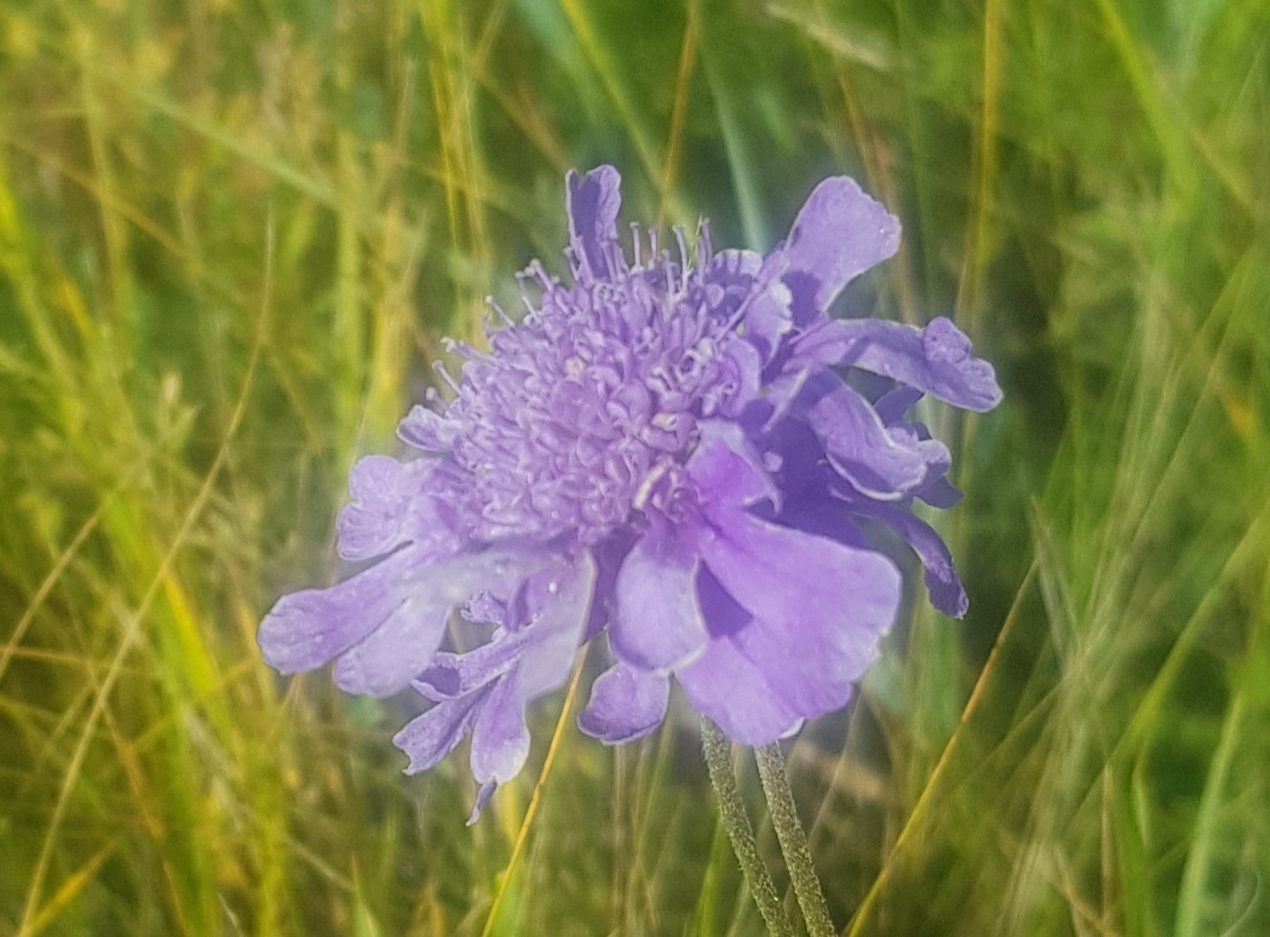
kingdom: Plantae
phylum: Tracheophyta
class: Magnoliopsida
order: Dipsacales
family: Caprifoliaceae
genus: Scabiosa
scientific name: Scabiosa comosa
